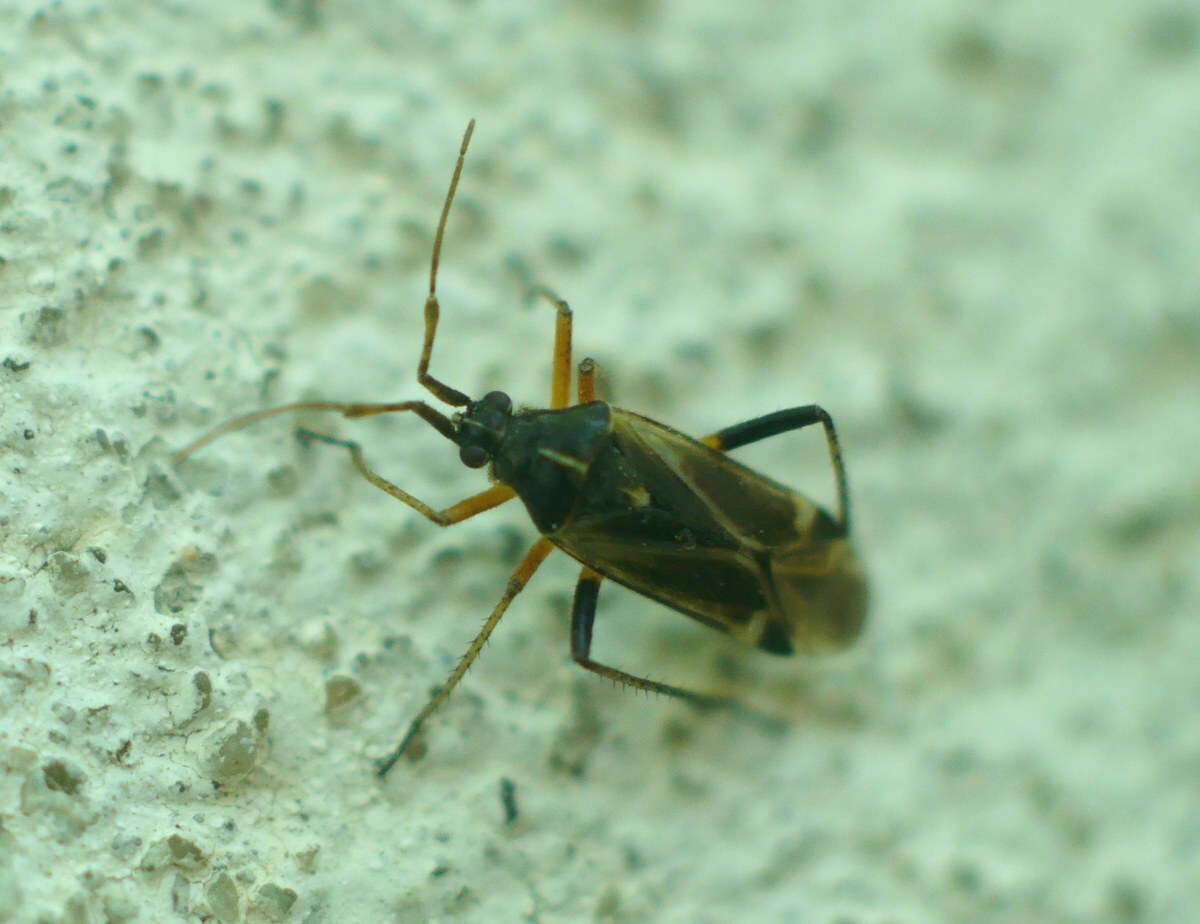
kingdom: Animalia
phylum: Arthropoda
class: Insecta
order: Hemiptera
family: Miridae
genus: Harpocera
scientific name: Harpocera thoracica
